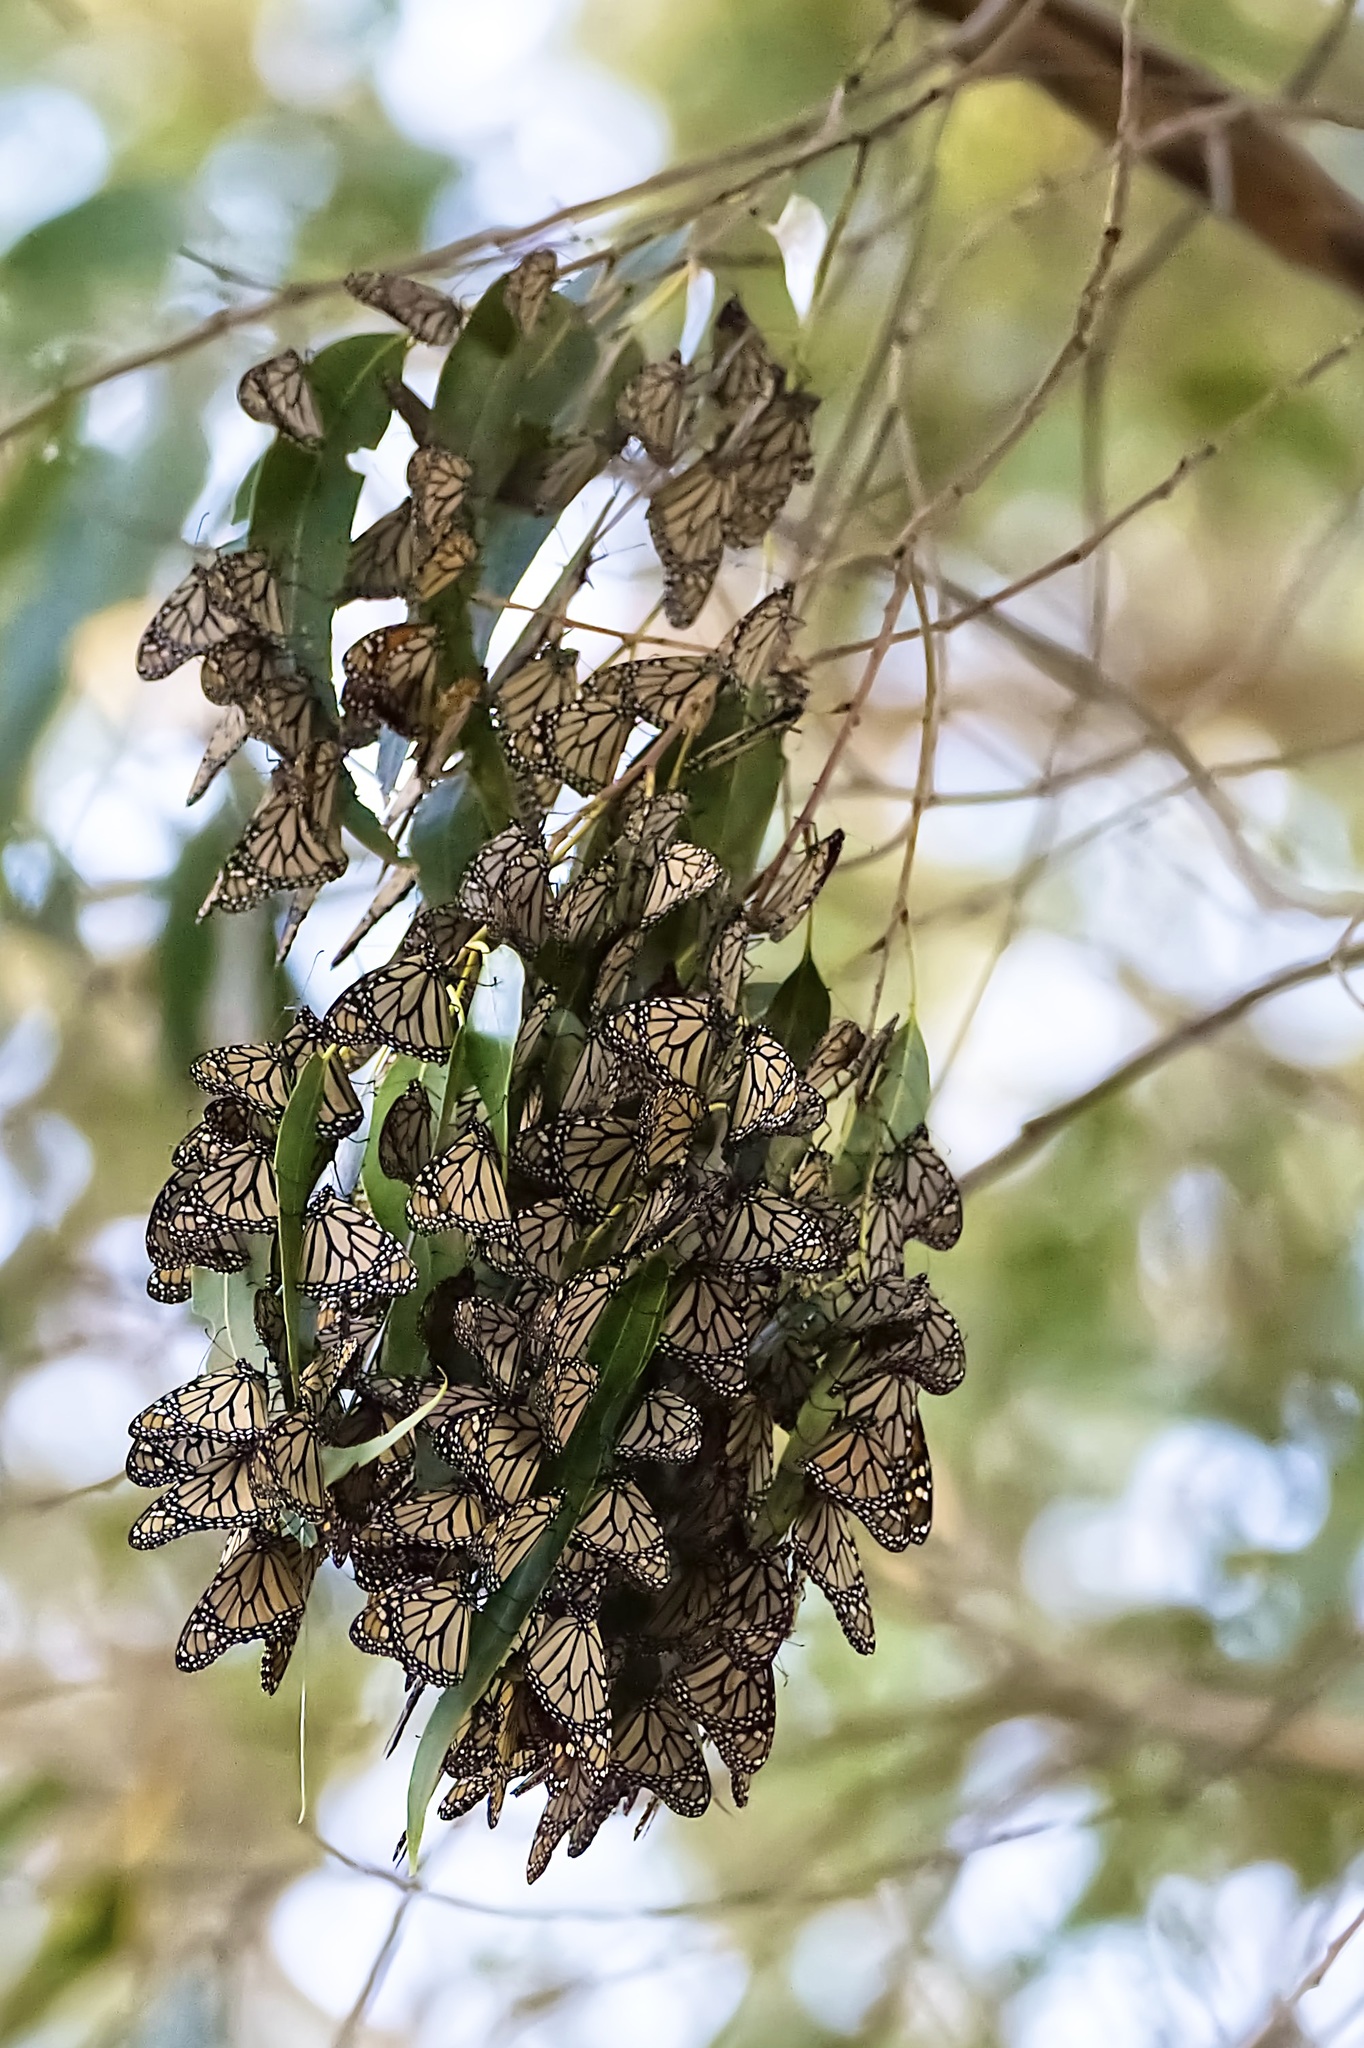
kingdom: Animalia
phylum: Arthropoda
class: Insecta
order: Lepidoptera
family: Nymphalidae
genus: Danaus
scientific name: Danaus plexippus
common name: Monarch
